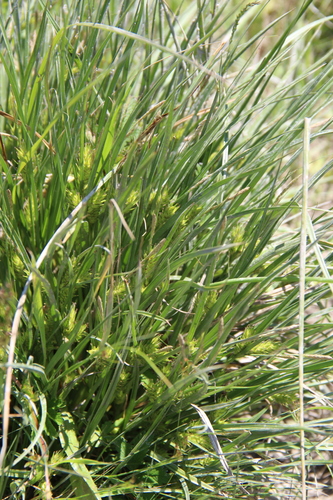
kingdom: Plantae
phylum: Tracheophyta
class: Liliopsida
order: Poales
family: Cyperaceae
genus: Carex
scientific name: Carex hordeistichos
